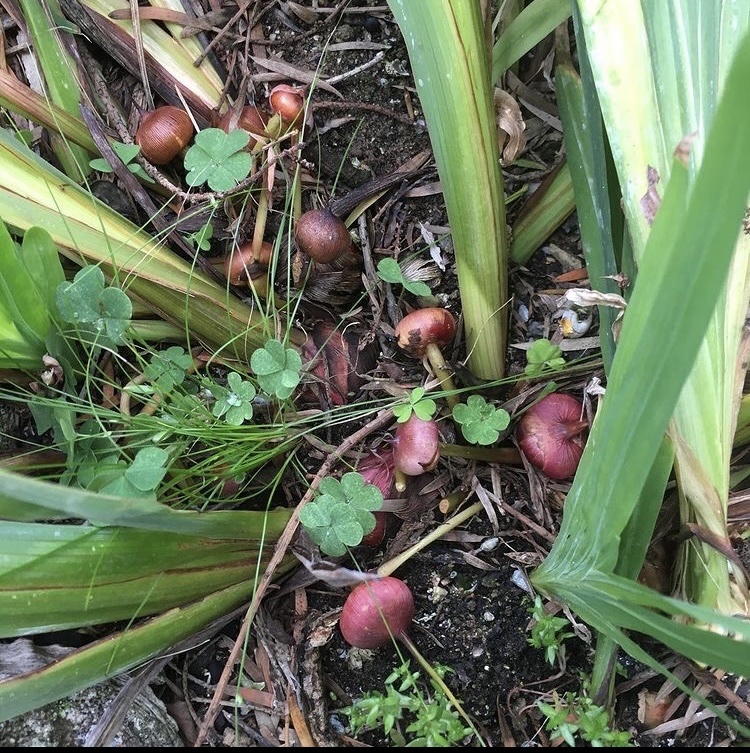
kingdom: Plantae
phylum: Tracheophyta
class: Liliopsida
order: Asparagales
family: Iridaceae
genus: Gladiolus
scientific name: Gladiolus dalenii
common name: Cornflag
